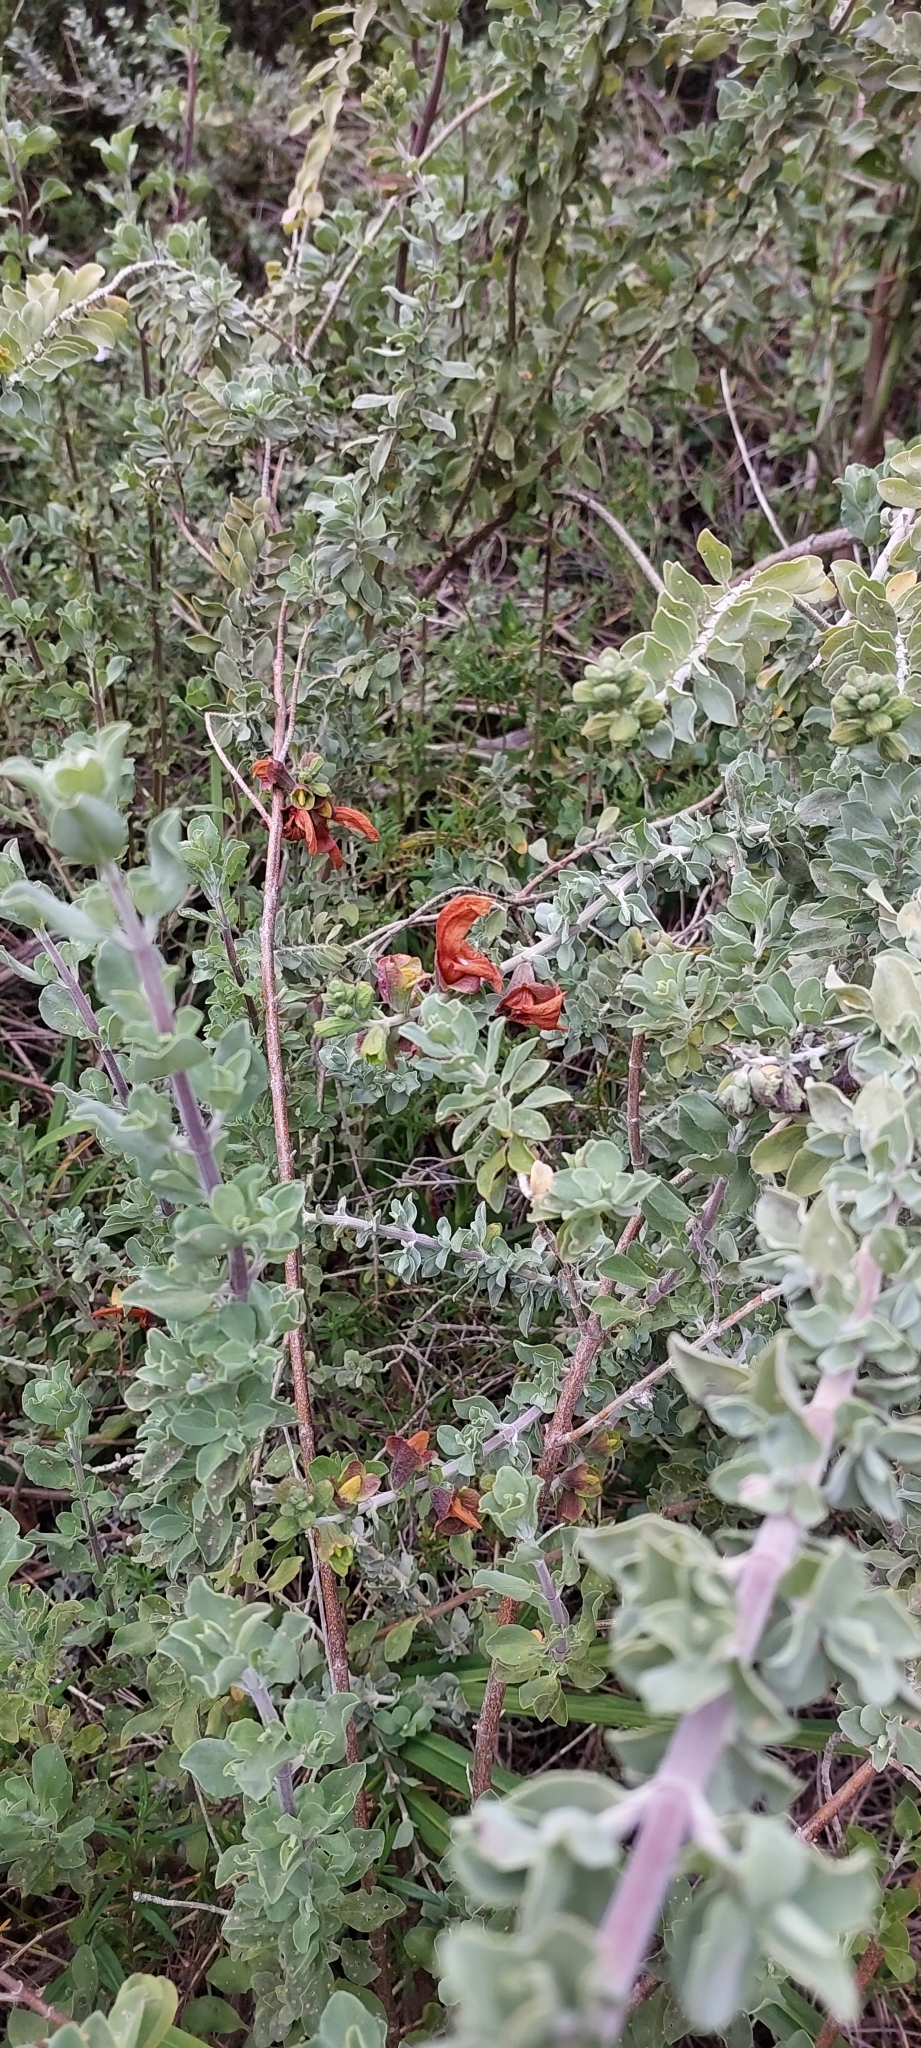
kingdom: Plantae
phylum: Tracheophyta
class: Magnoliopsida
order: Lamiales
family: Lamiaceae
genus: Salvia
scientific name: Salvia aurea
